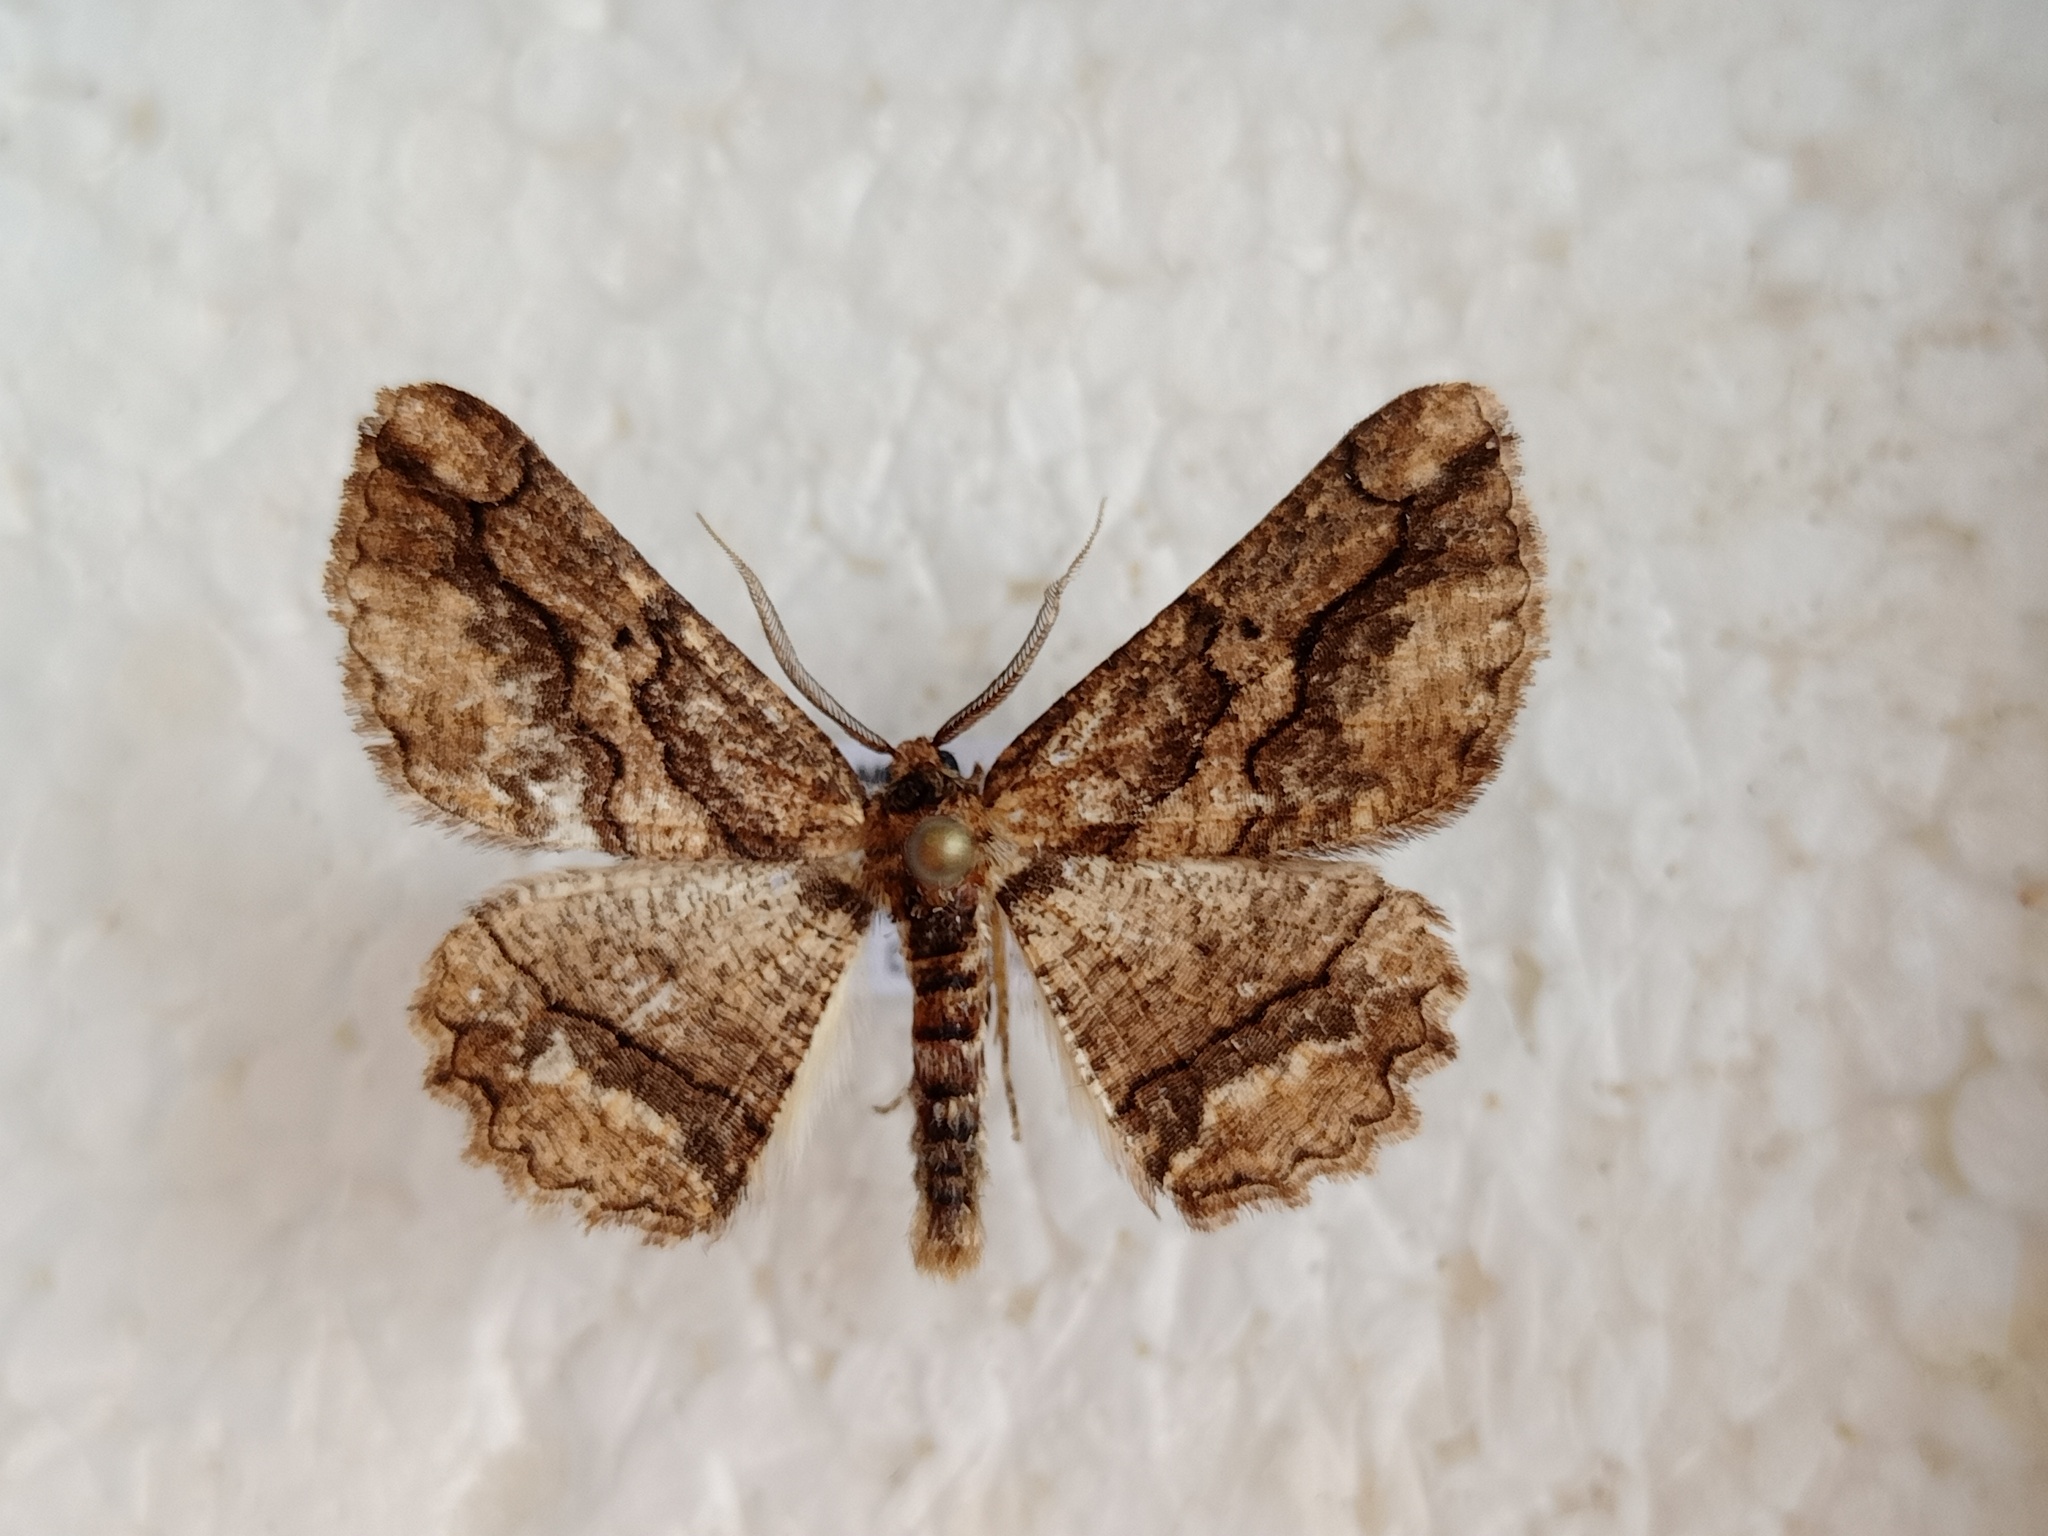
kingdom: Animalia
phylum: Arthropoda
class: Insecta
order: Lepidoptera
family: Geometridae
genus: Menophra
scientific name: Menophra japygiaria
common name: Brassy waved umber
